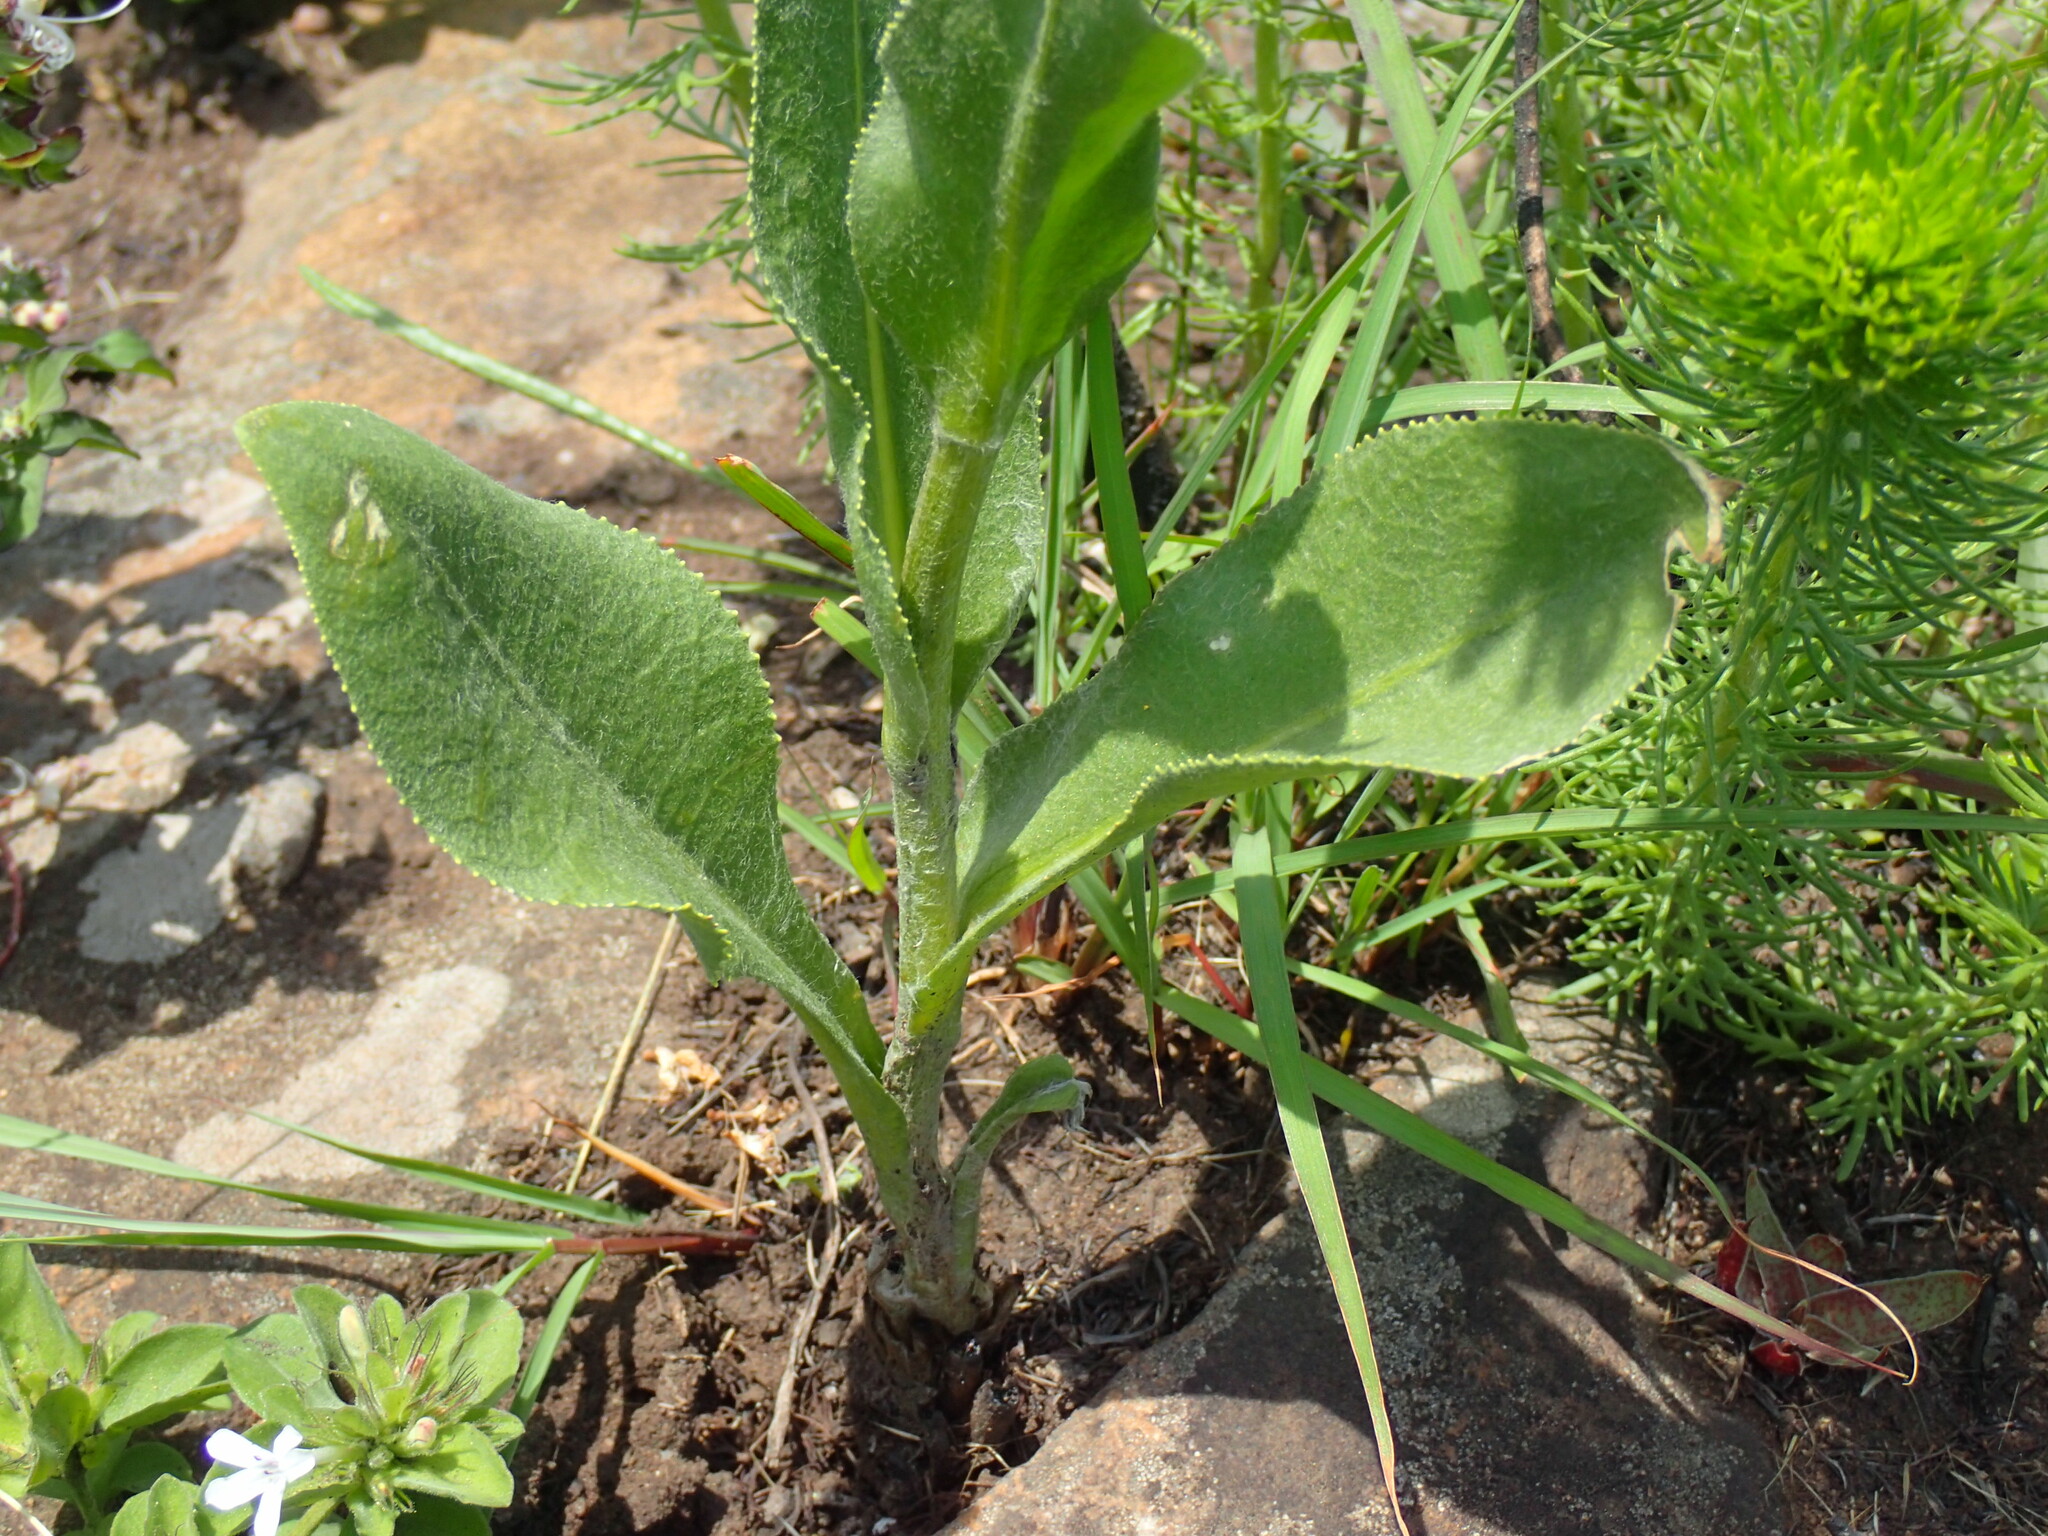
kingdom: Plantae
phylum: Tracheophyta
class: Magnoliopsida
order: Asterales
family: Asteraceae
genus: Senecio
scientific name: Senecio coronatus
